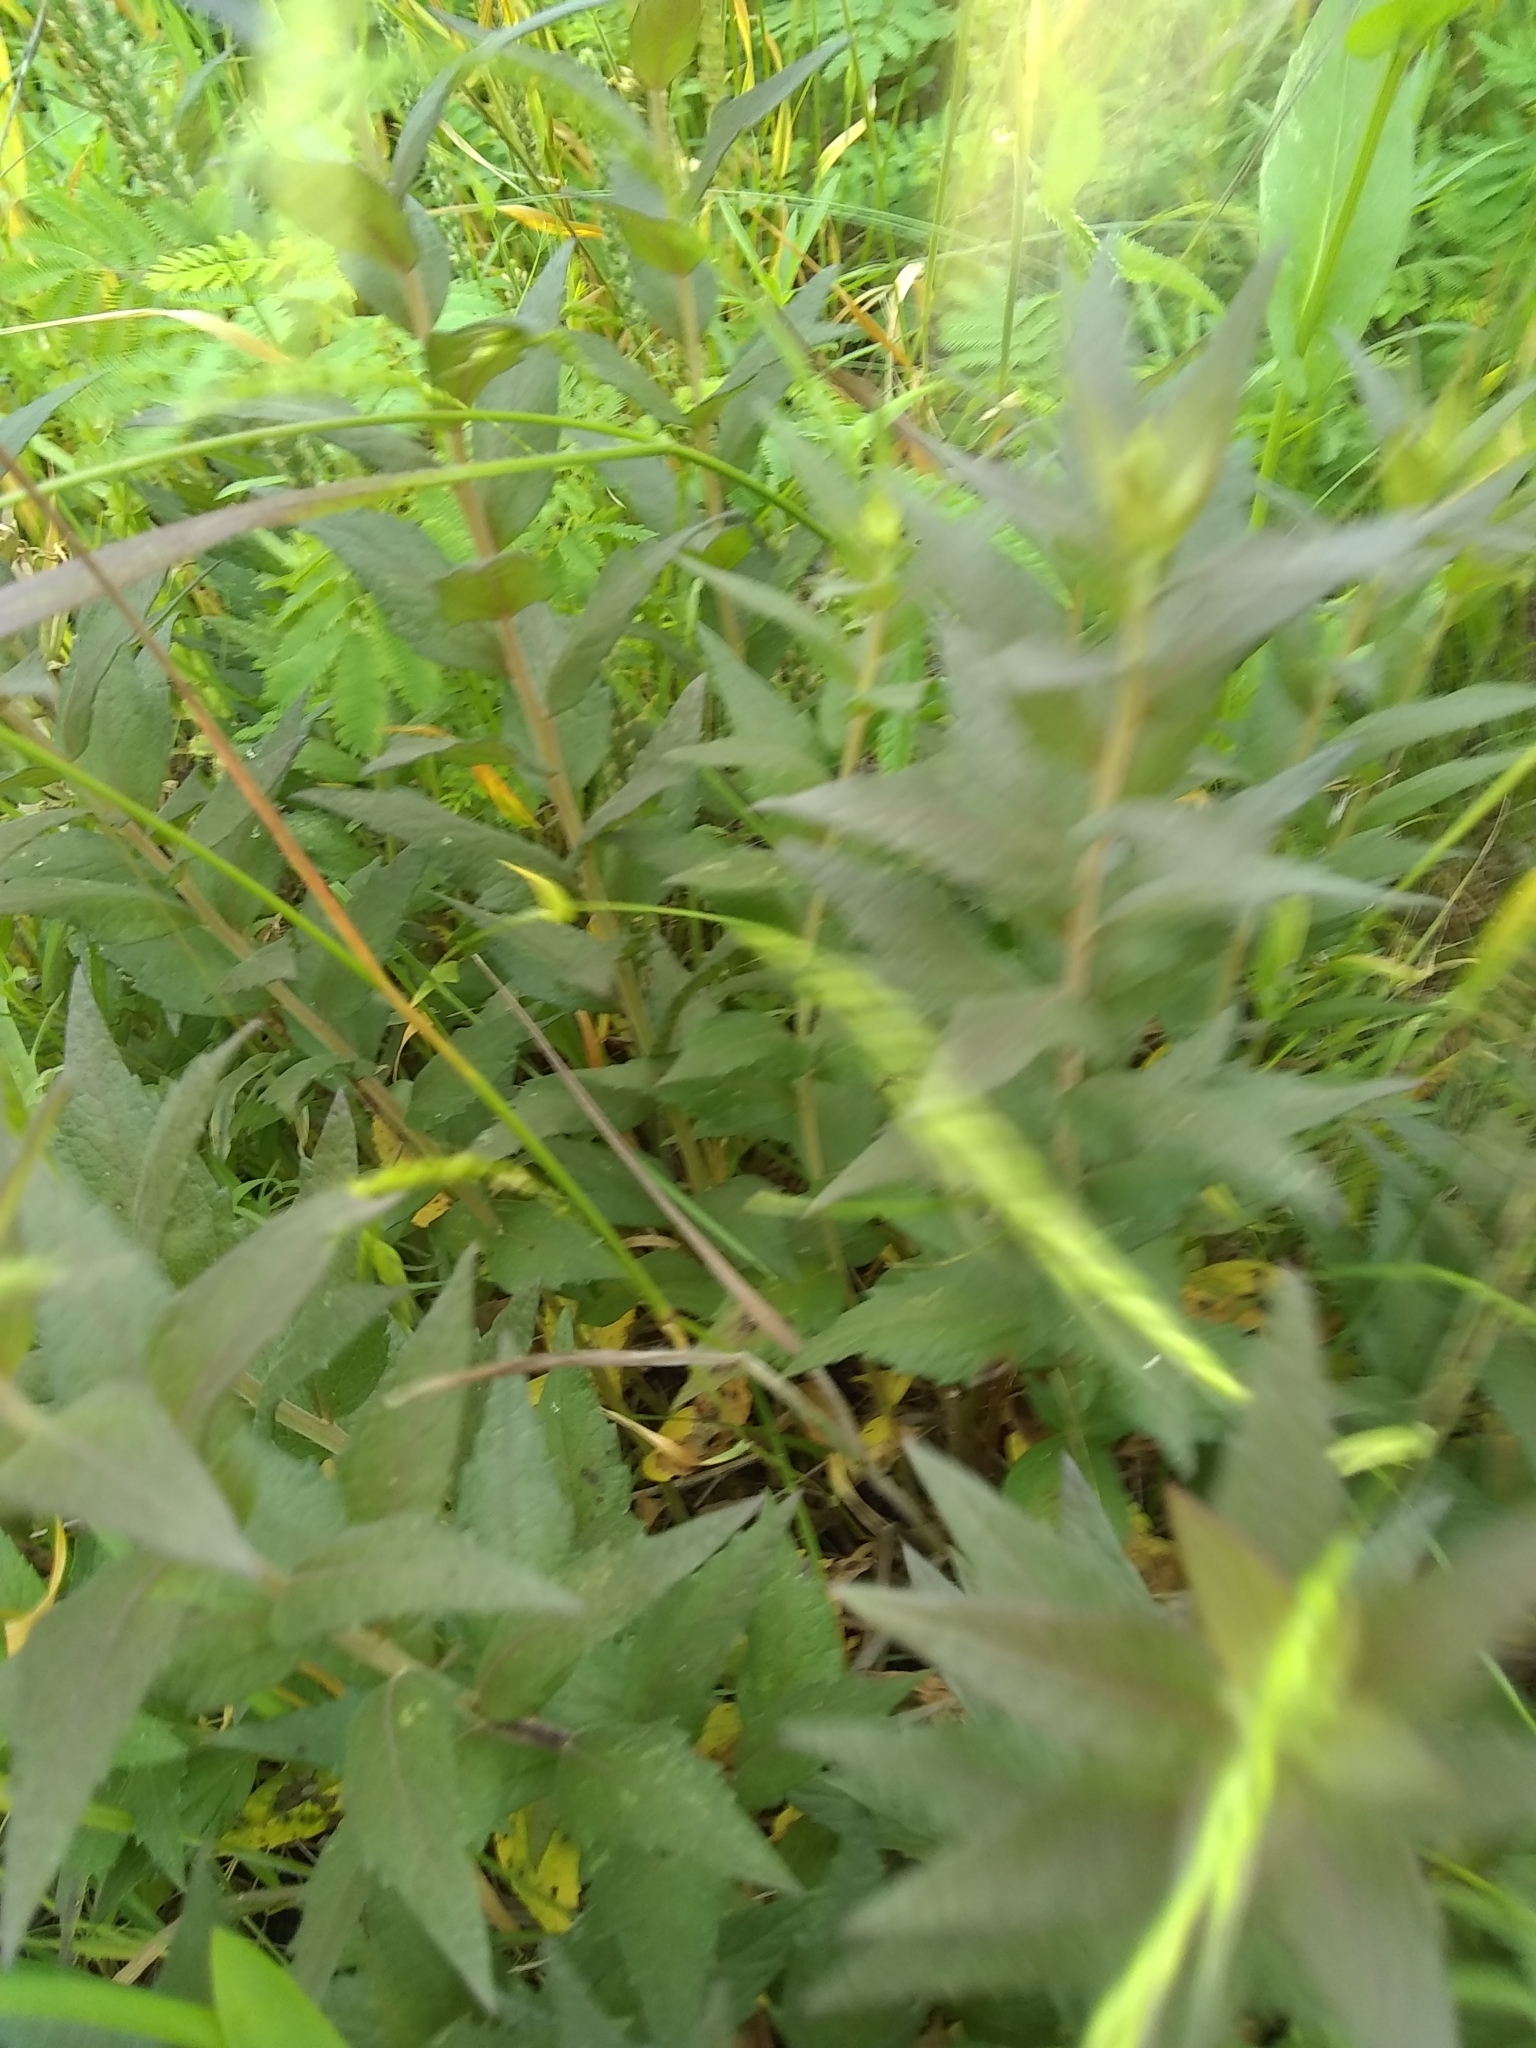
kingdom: Plantae
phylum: Tracheophyta
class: Magnoliopsida
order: Lamiales
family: Orobanchaceae
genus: Castilleja
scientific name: Castilleja purpurea
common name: Plains paintbrush
